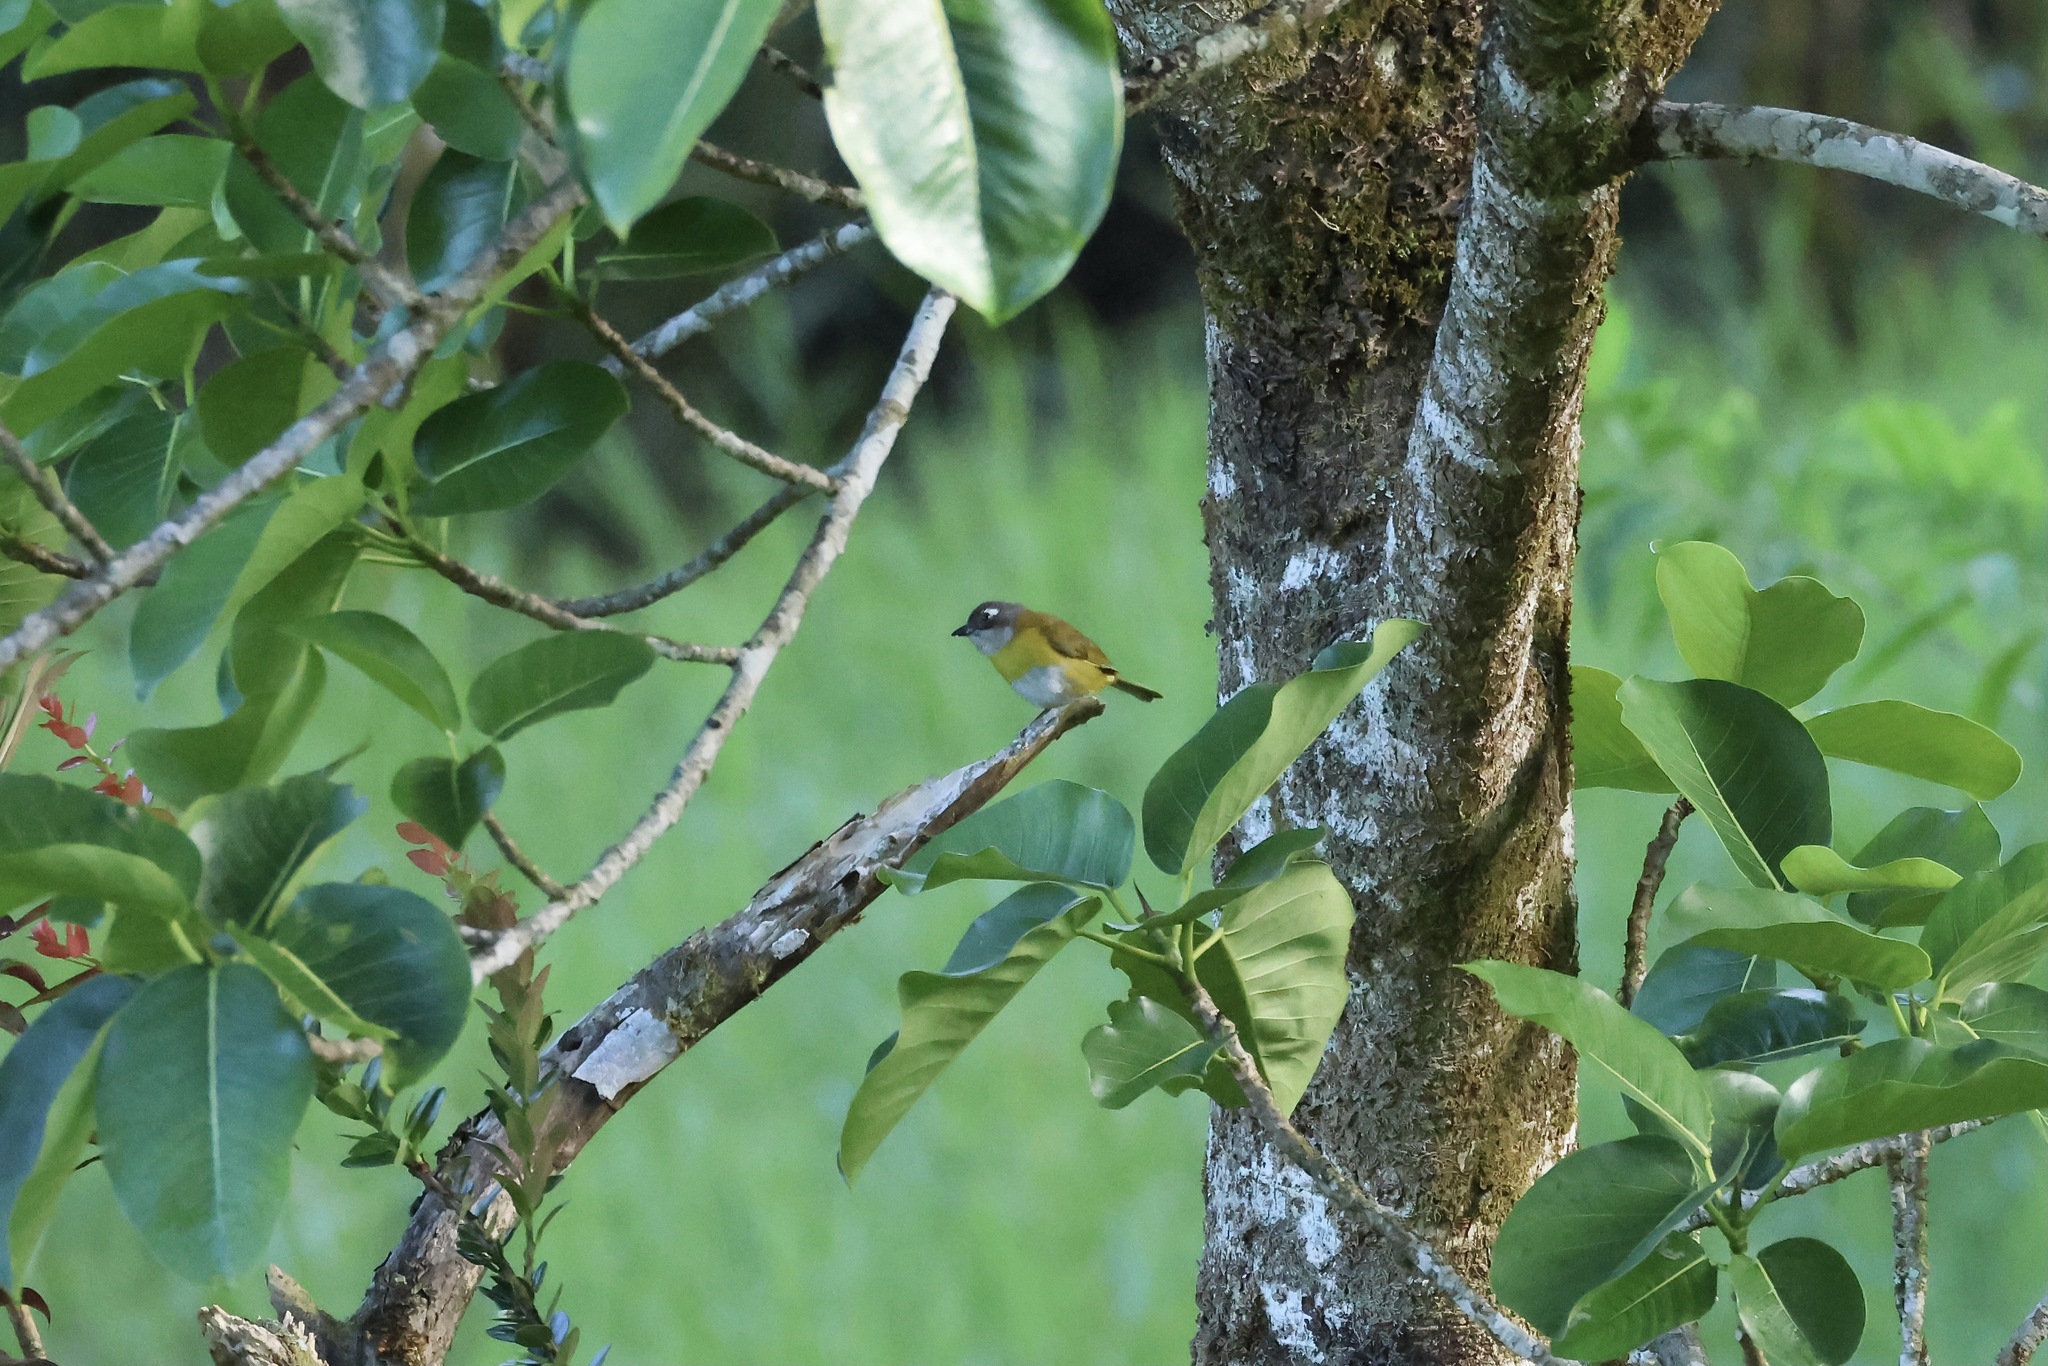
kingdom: Animalia
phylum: Chordata
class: Aves
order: Passeriformes
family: Passerellidae
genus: Chlorospingus
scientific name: Chlorospingus flavopectus
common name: Common chlorospingus
